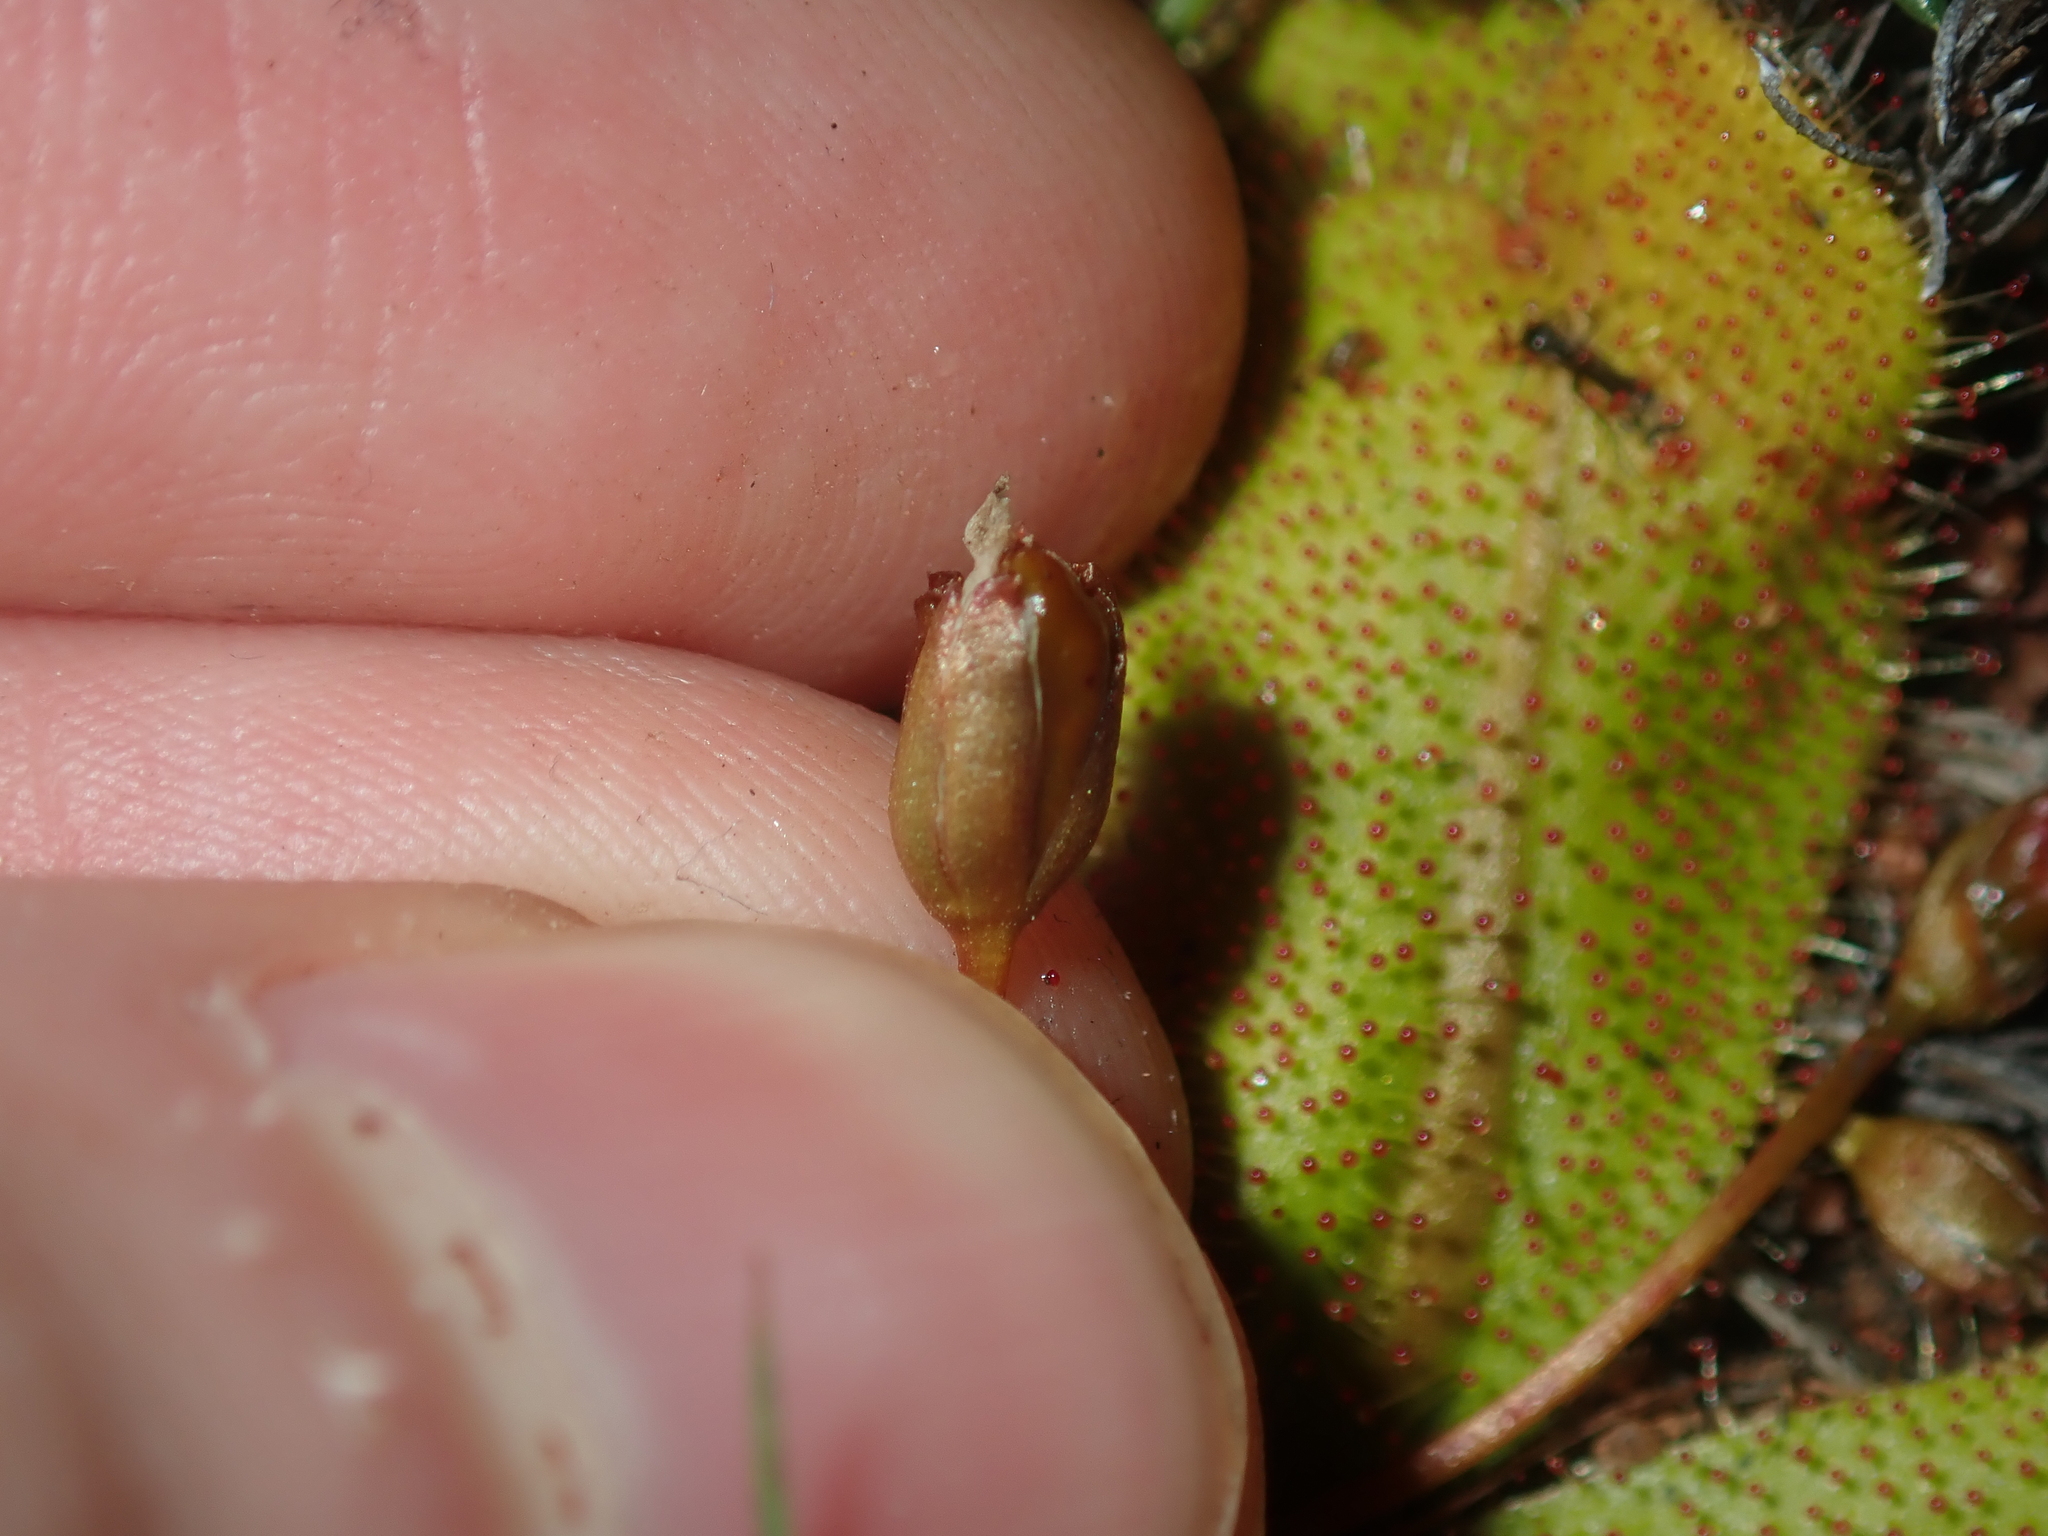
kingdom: Plantae
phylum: Tracheophyta
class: Magnoliopsida
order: Caryophyllales
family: Droseraceae
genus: Drosera
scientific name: Drosera bulbosa
